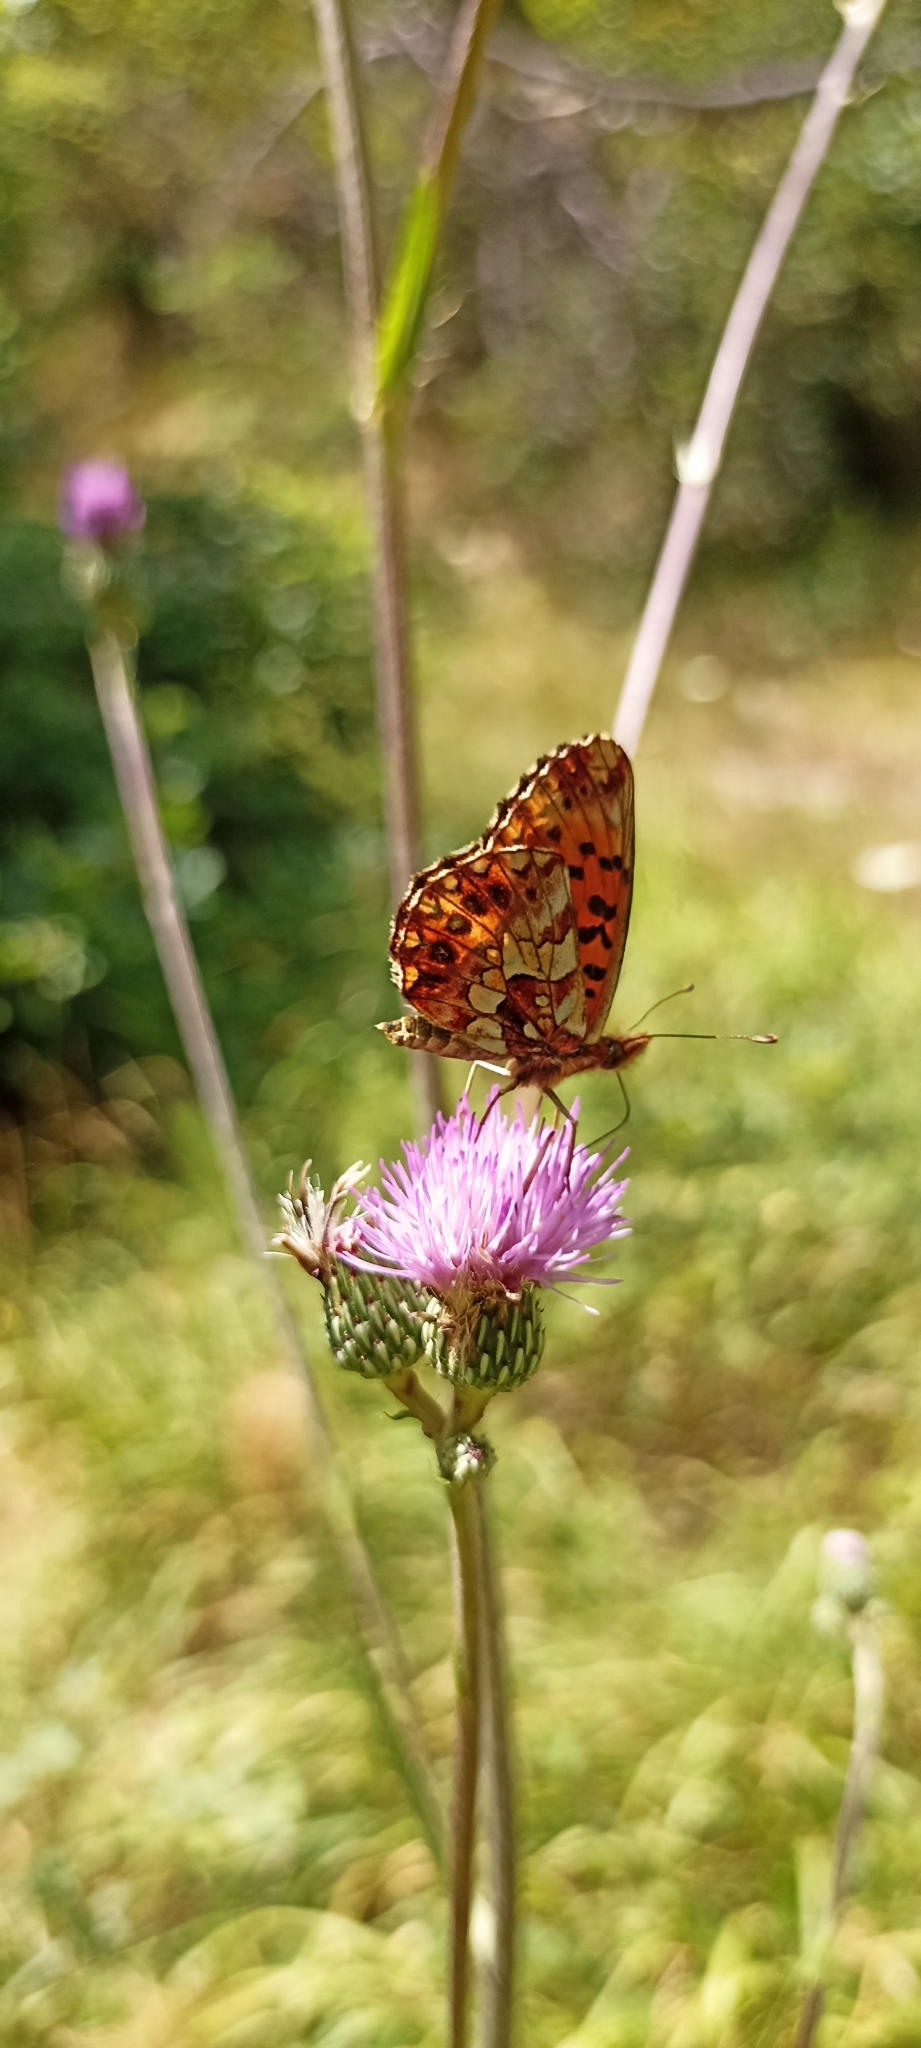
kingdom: Animalia
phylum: Arthropoda
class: Insecta
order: Lepidoptera
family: Nymphalidae
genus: Boloria
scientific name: Boloria dia
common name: Weaver's fritillary
